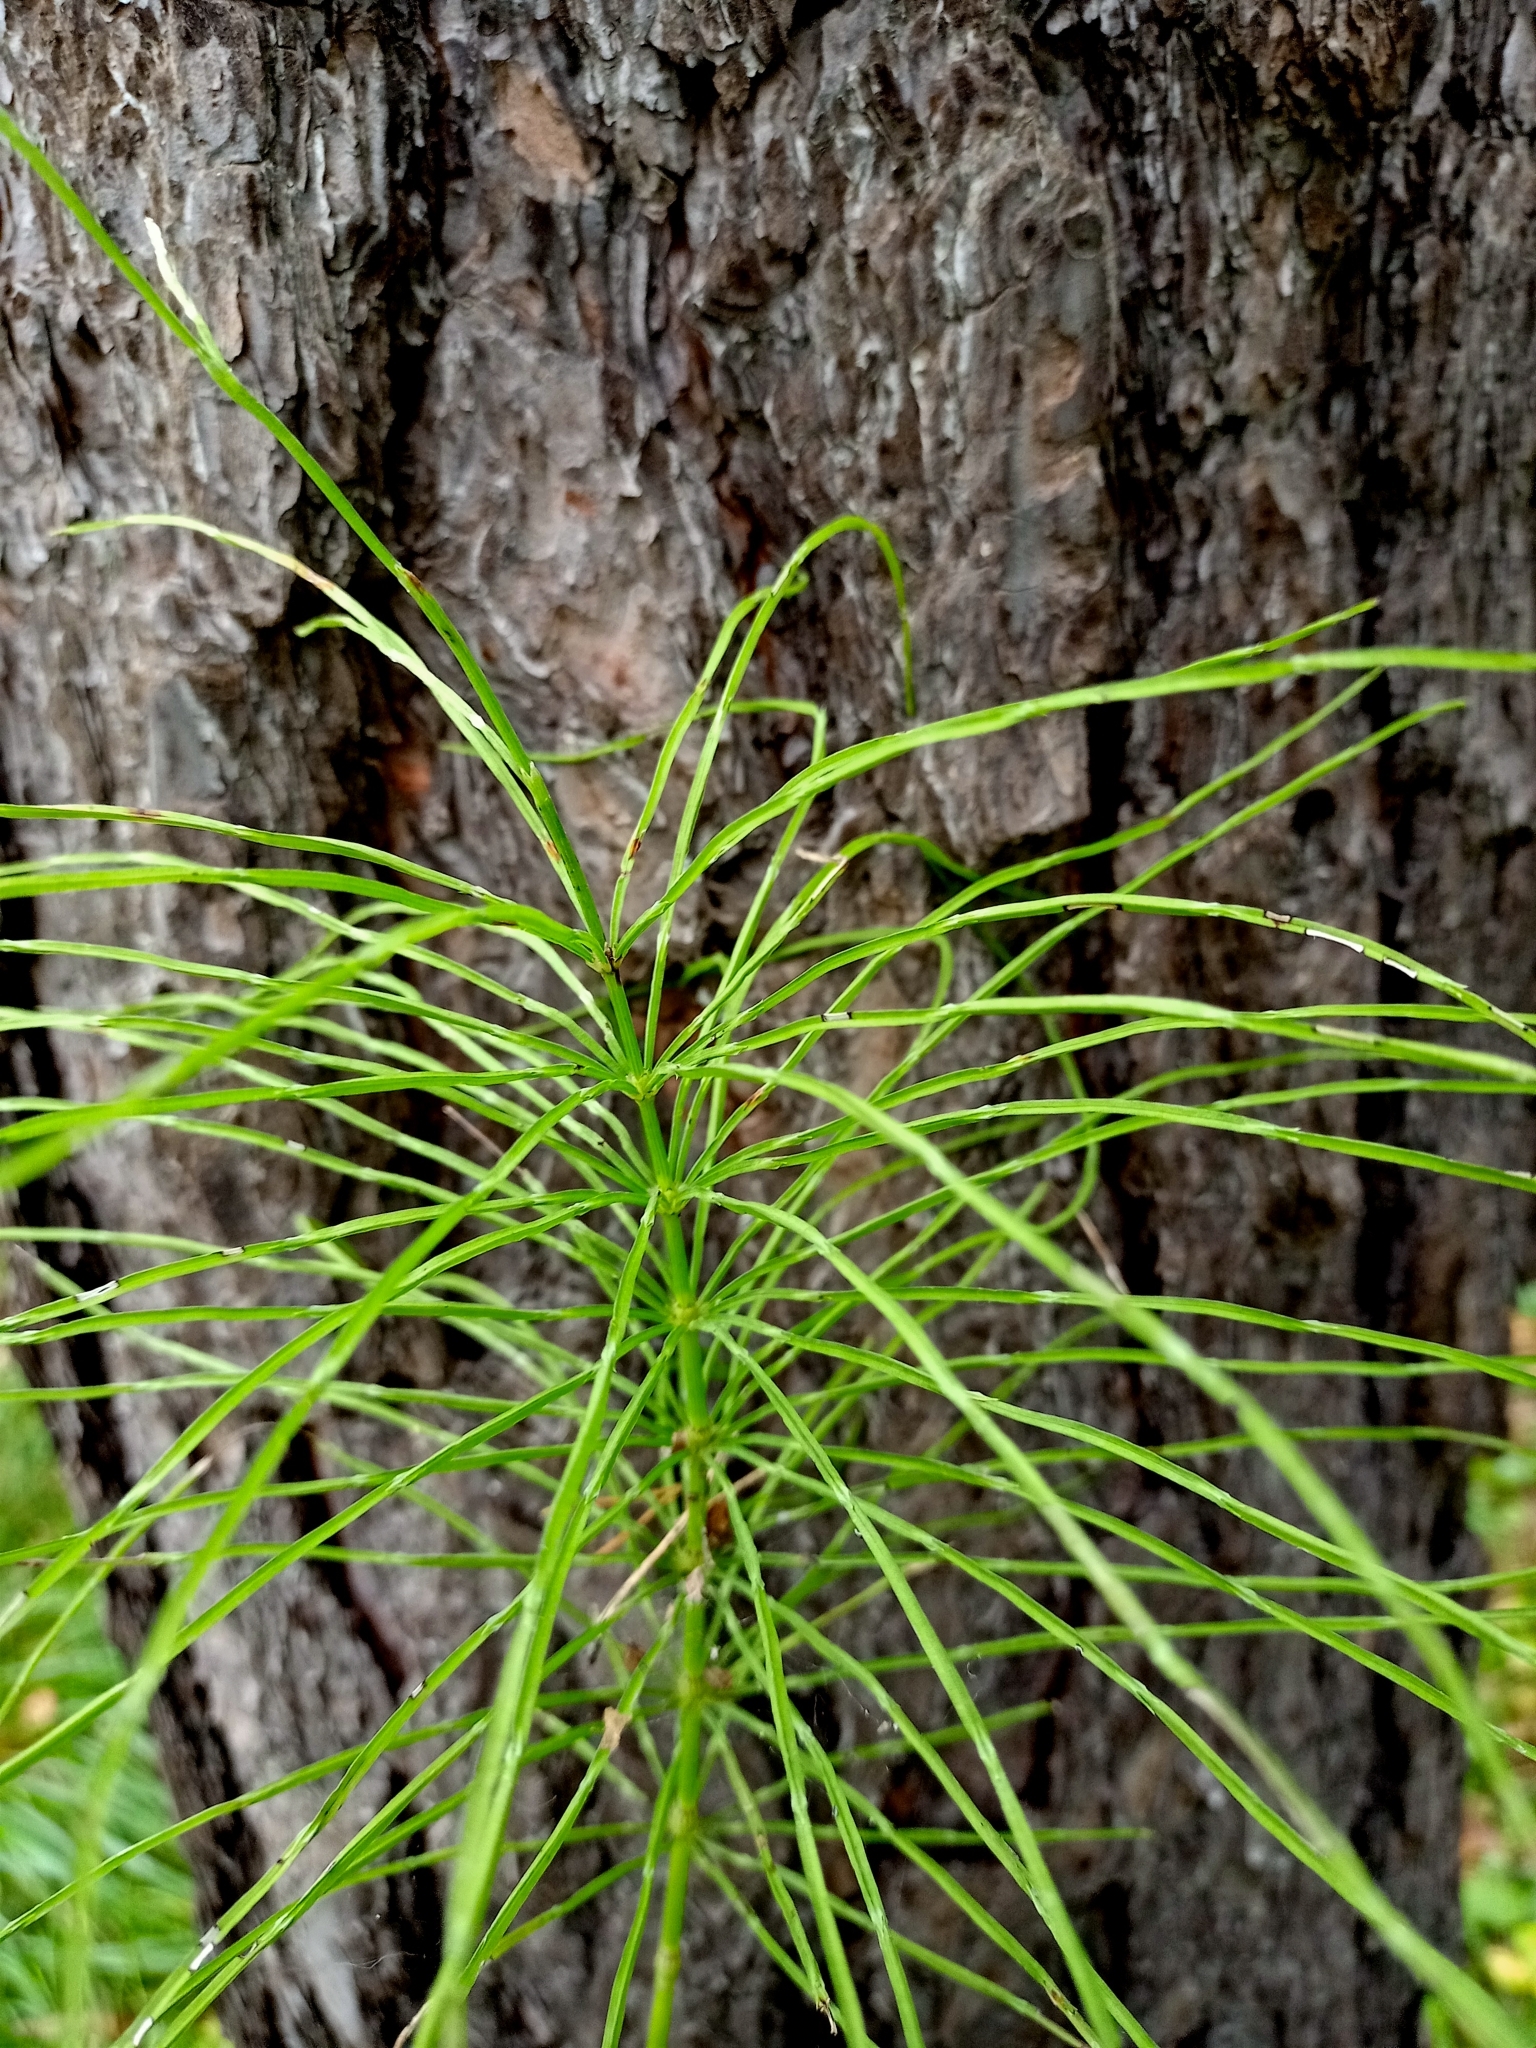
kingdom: Plantae
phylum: Tracheophyta
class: Polypodiopsida
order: Equisetales
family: Equisetaceae
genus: Equisetum
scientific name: Equisetum arvense
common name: Field horsetail
